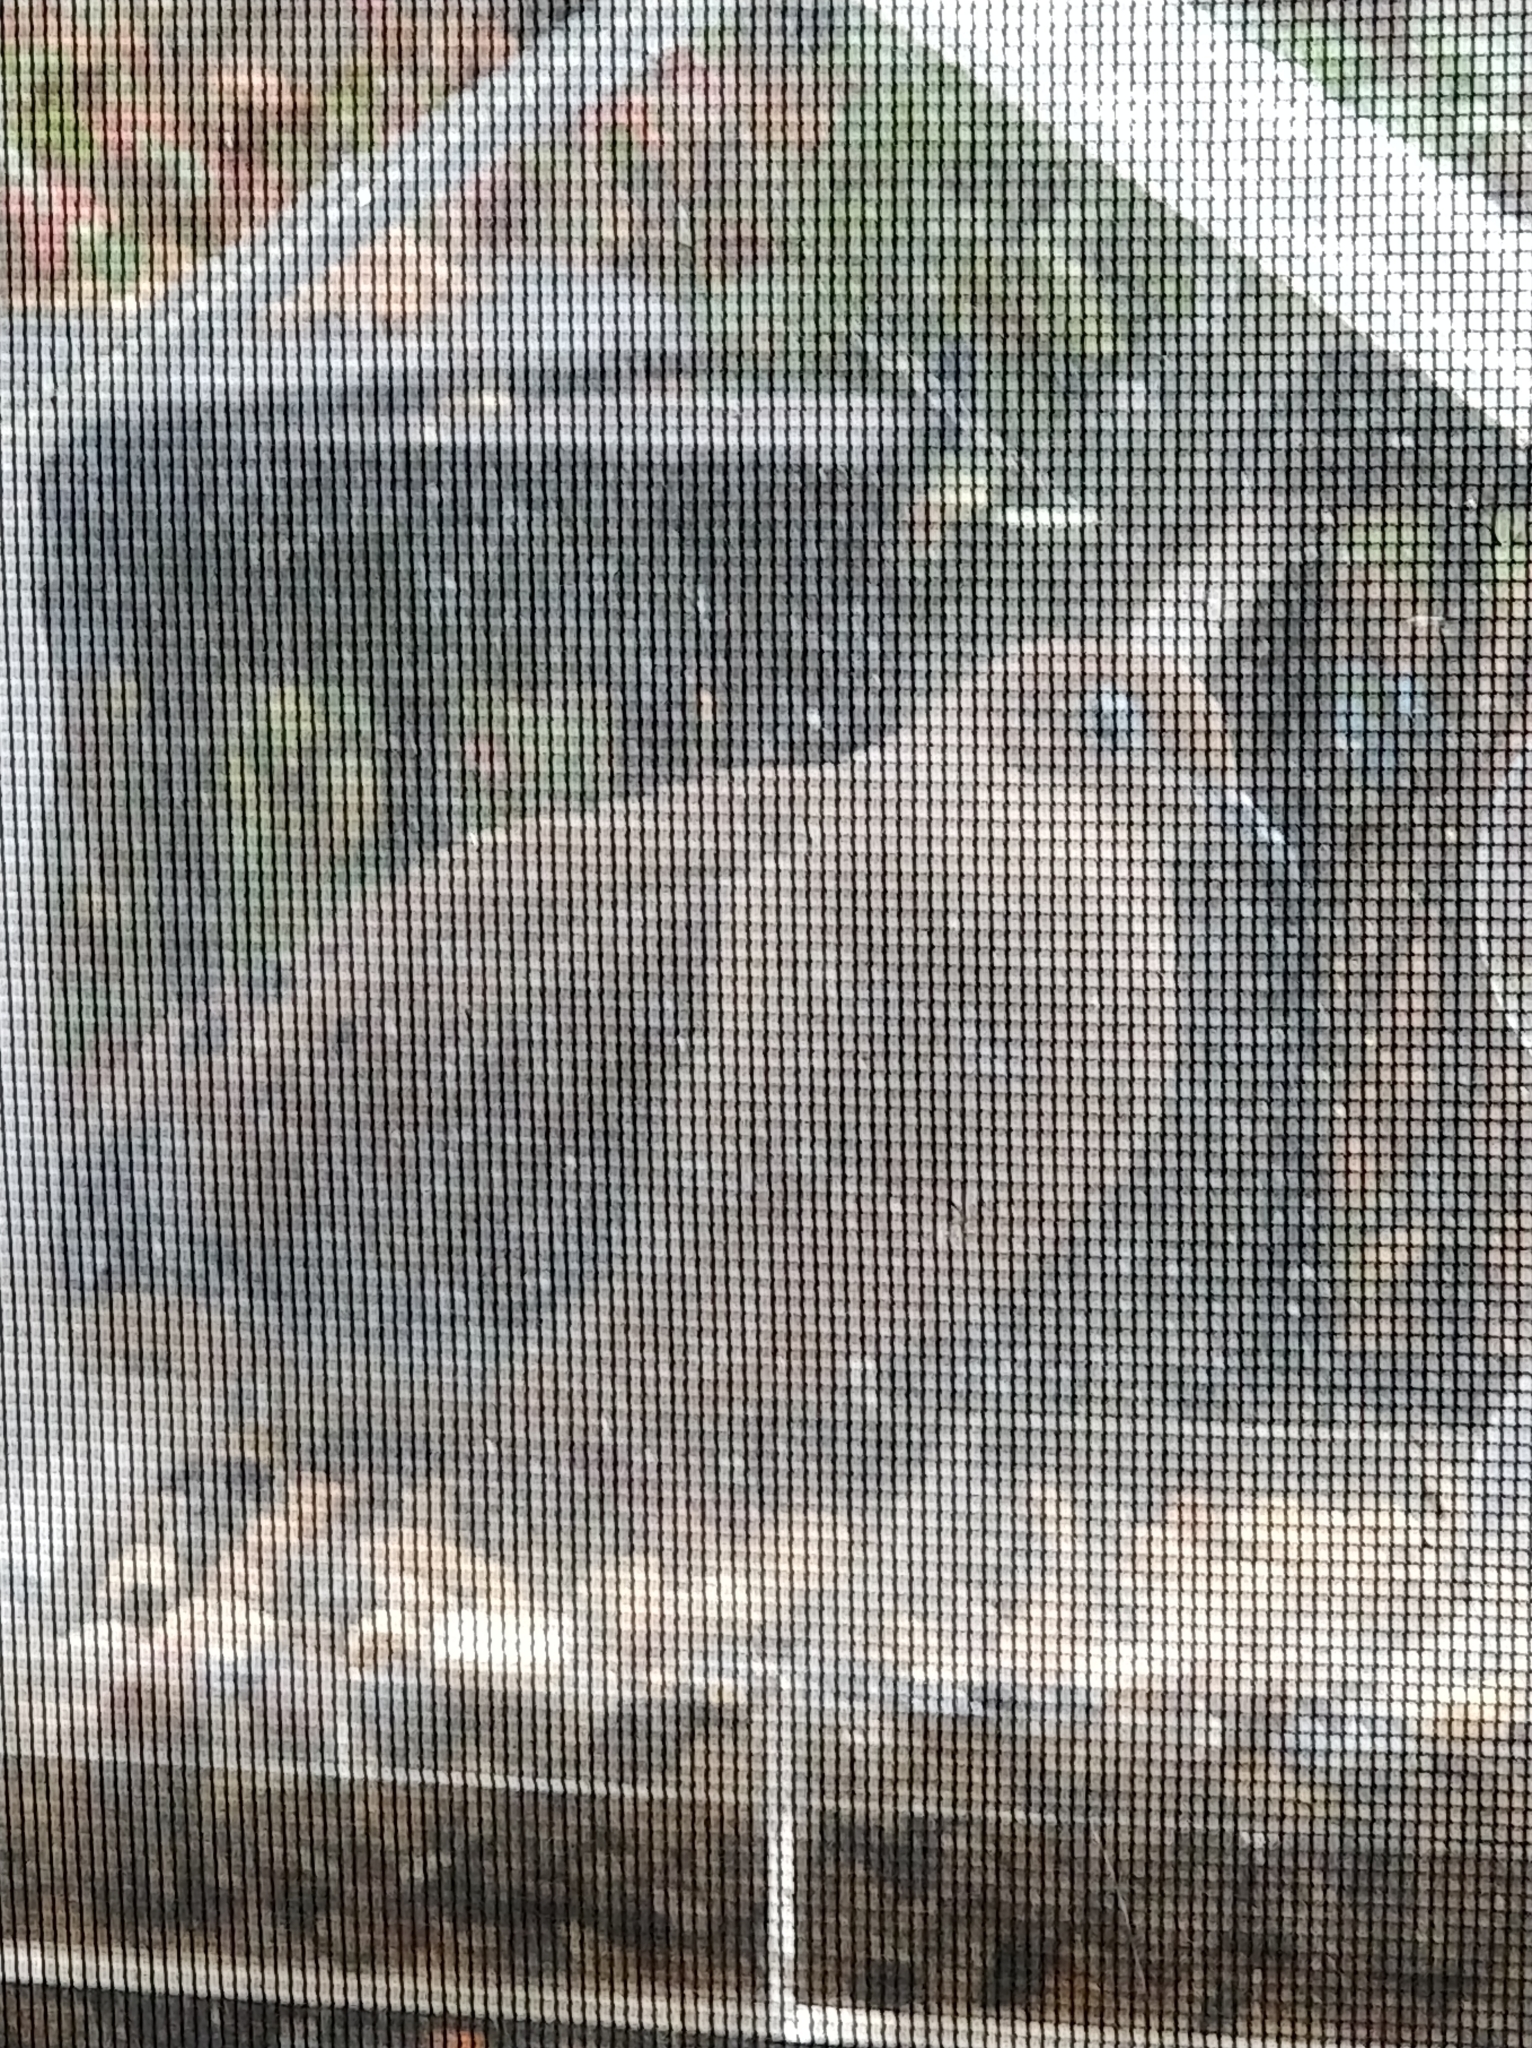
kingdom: Animalia
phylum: Chordata
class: Aves
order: Columbiformes
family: Columbidae
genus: Zenaida
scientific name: Zenaida macroura
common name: Mourning dove
